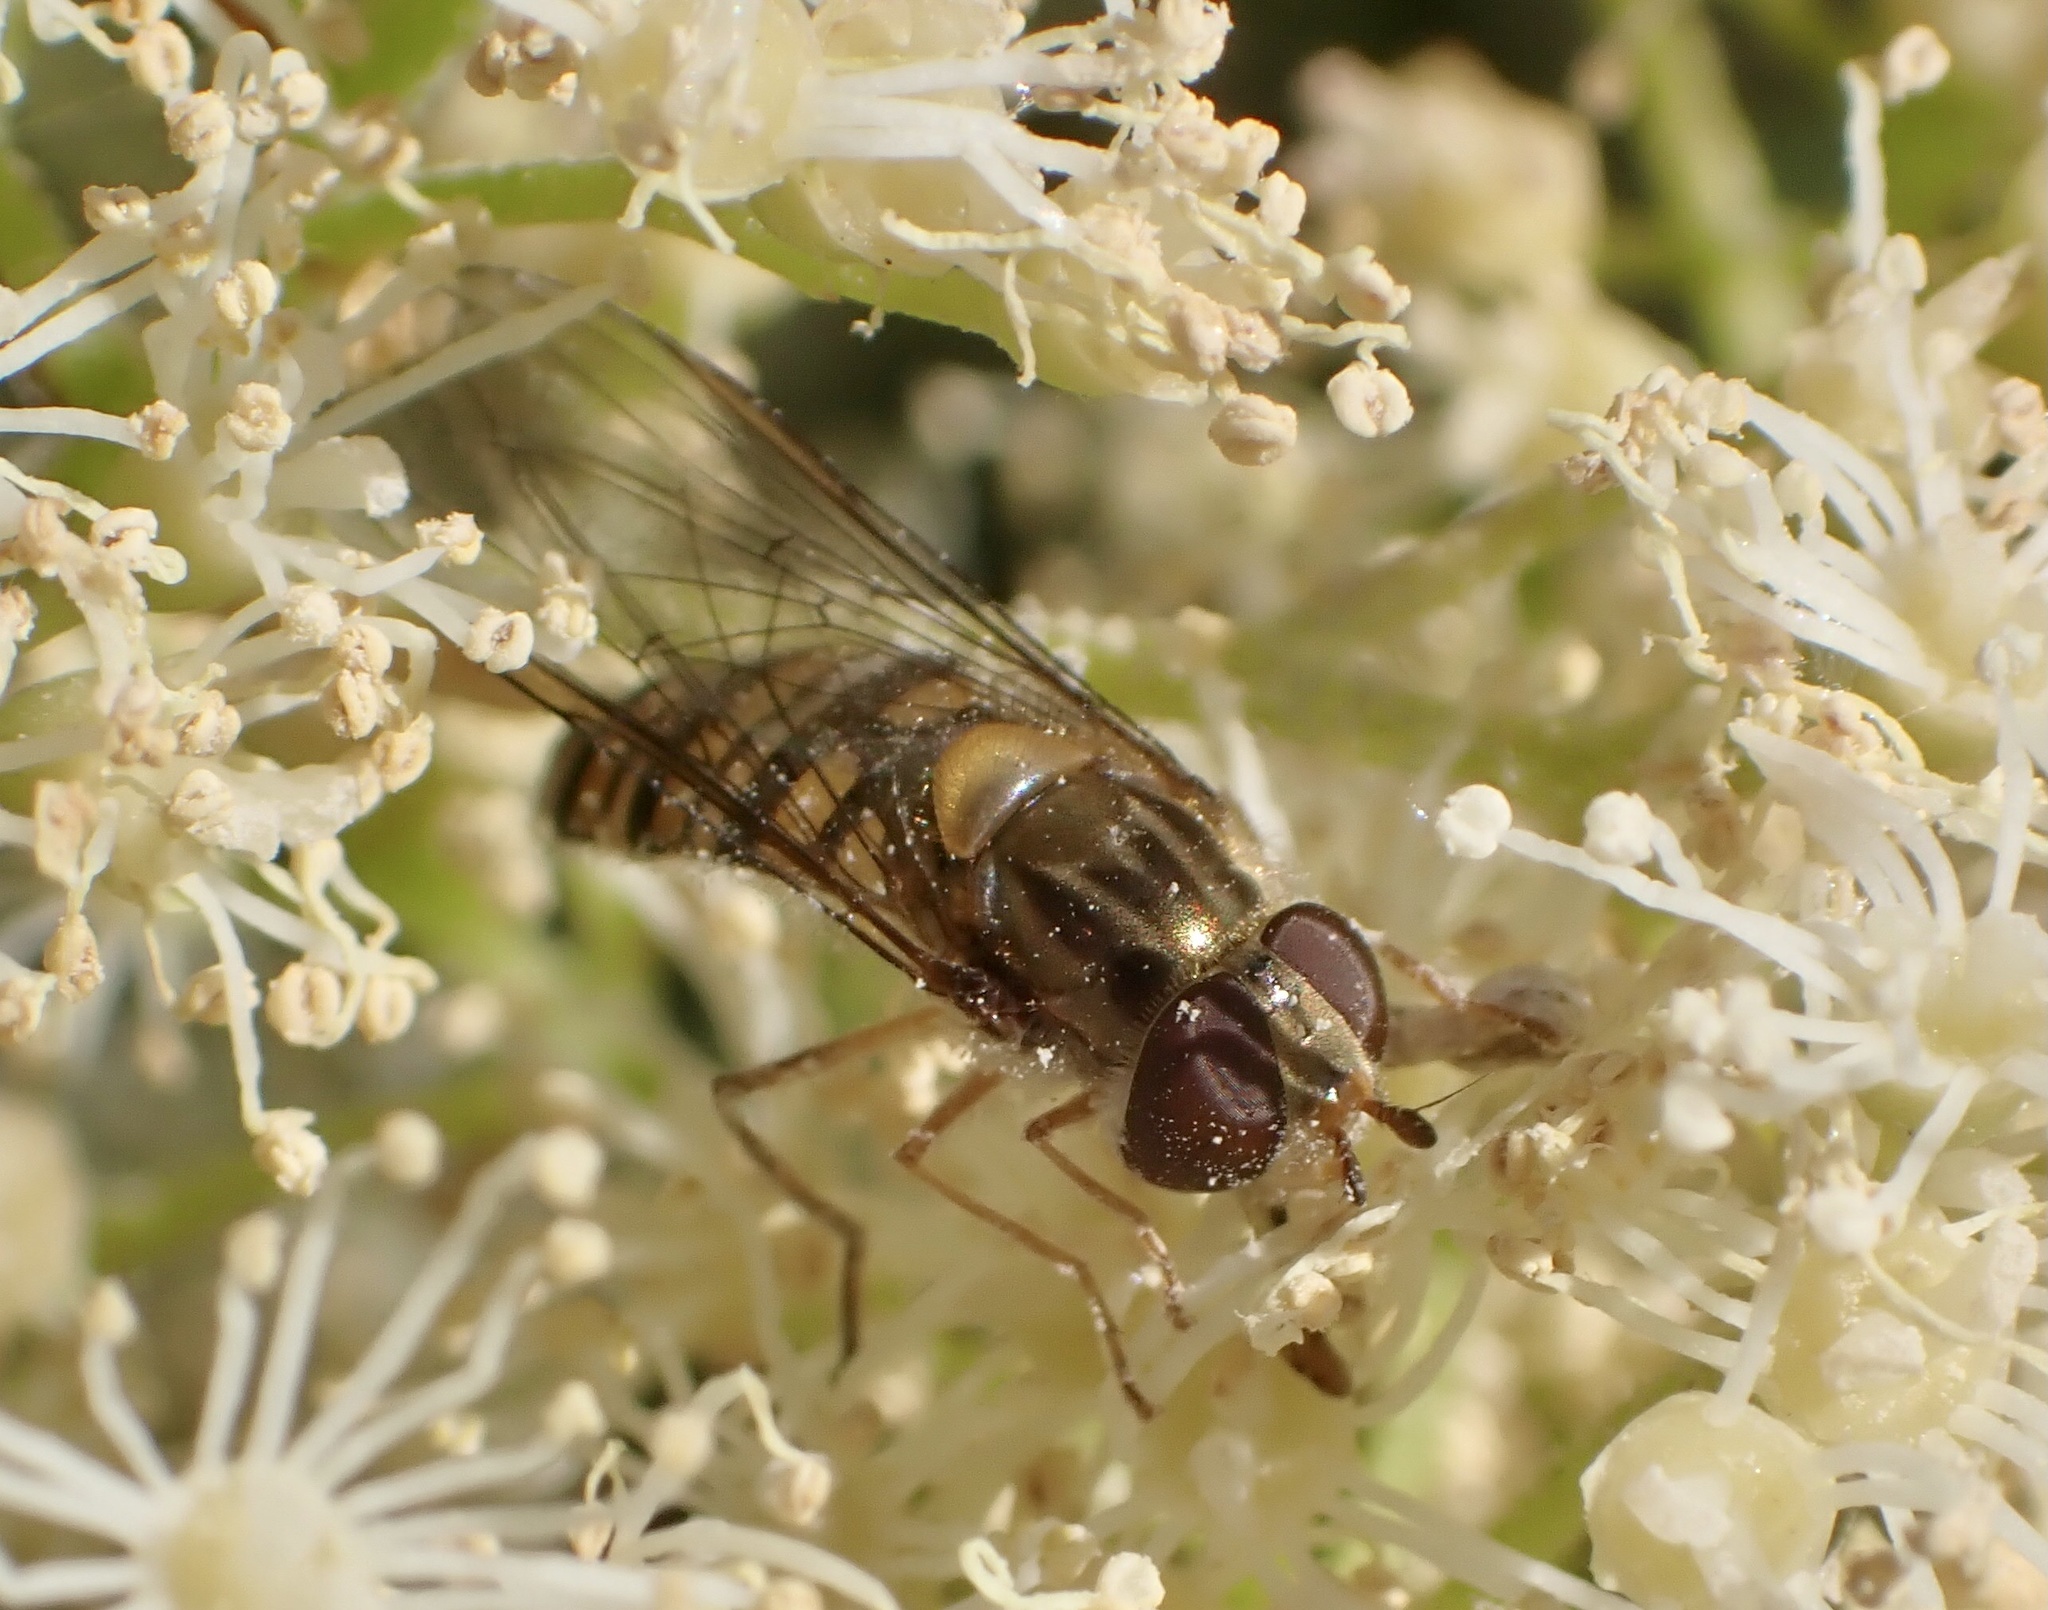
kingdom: Animalia
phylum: Arthropoda
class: Insecta
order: Diptera
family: Syrphidae
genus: Episyrphus
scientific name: Episyrphus balteatus
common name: Marmalade hoverfly
